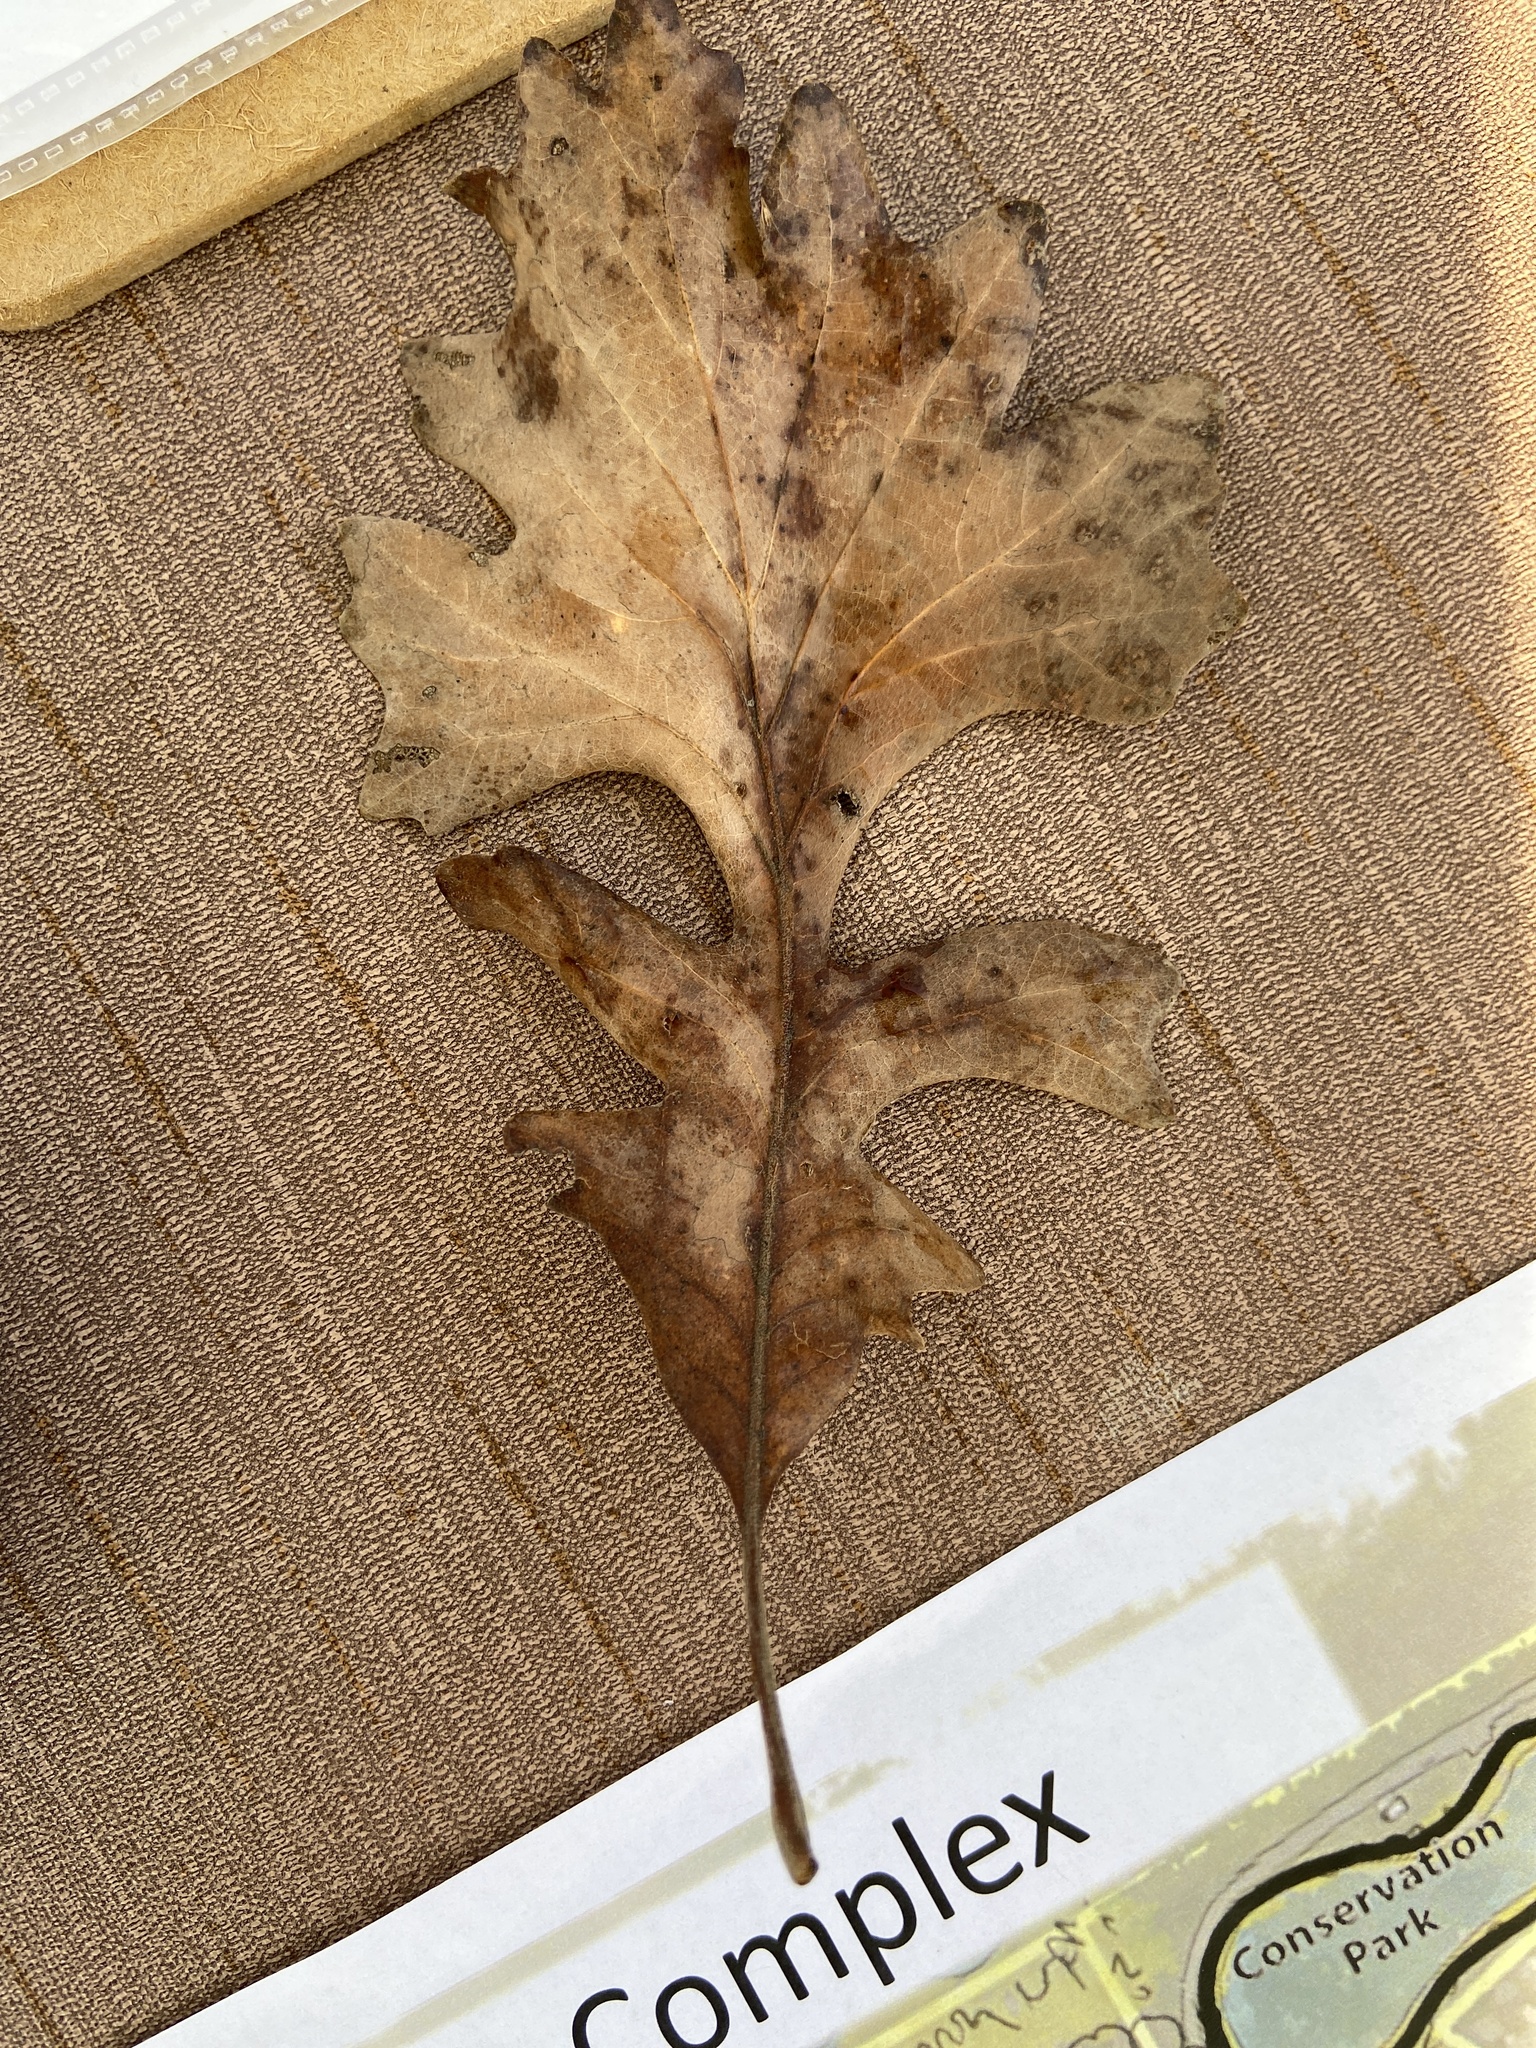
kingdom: Plantae
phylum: Tracheophyta
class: Magnoliopsida
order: Fagales
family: Fagaceae
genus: Quercus
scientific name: Quercus macrocarpa
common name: Bur oak
